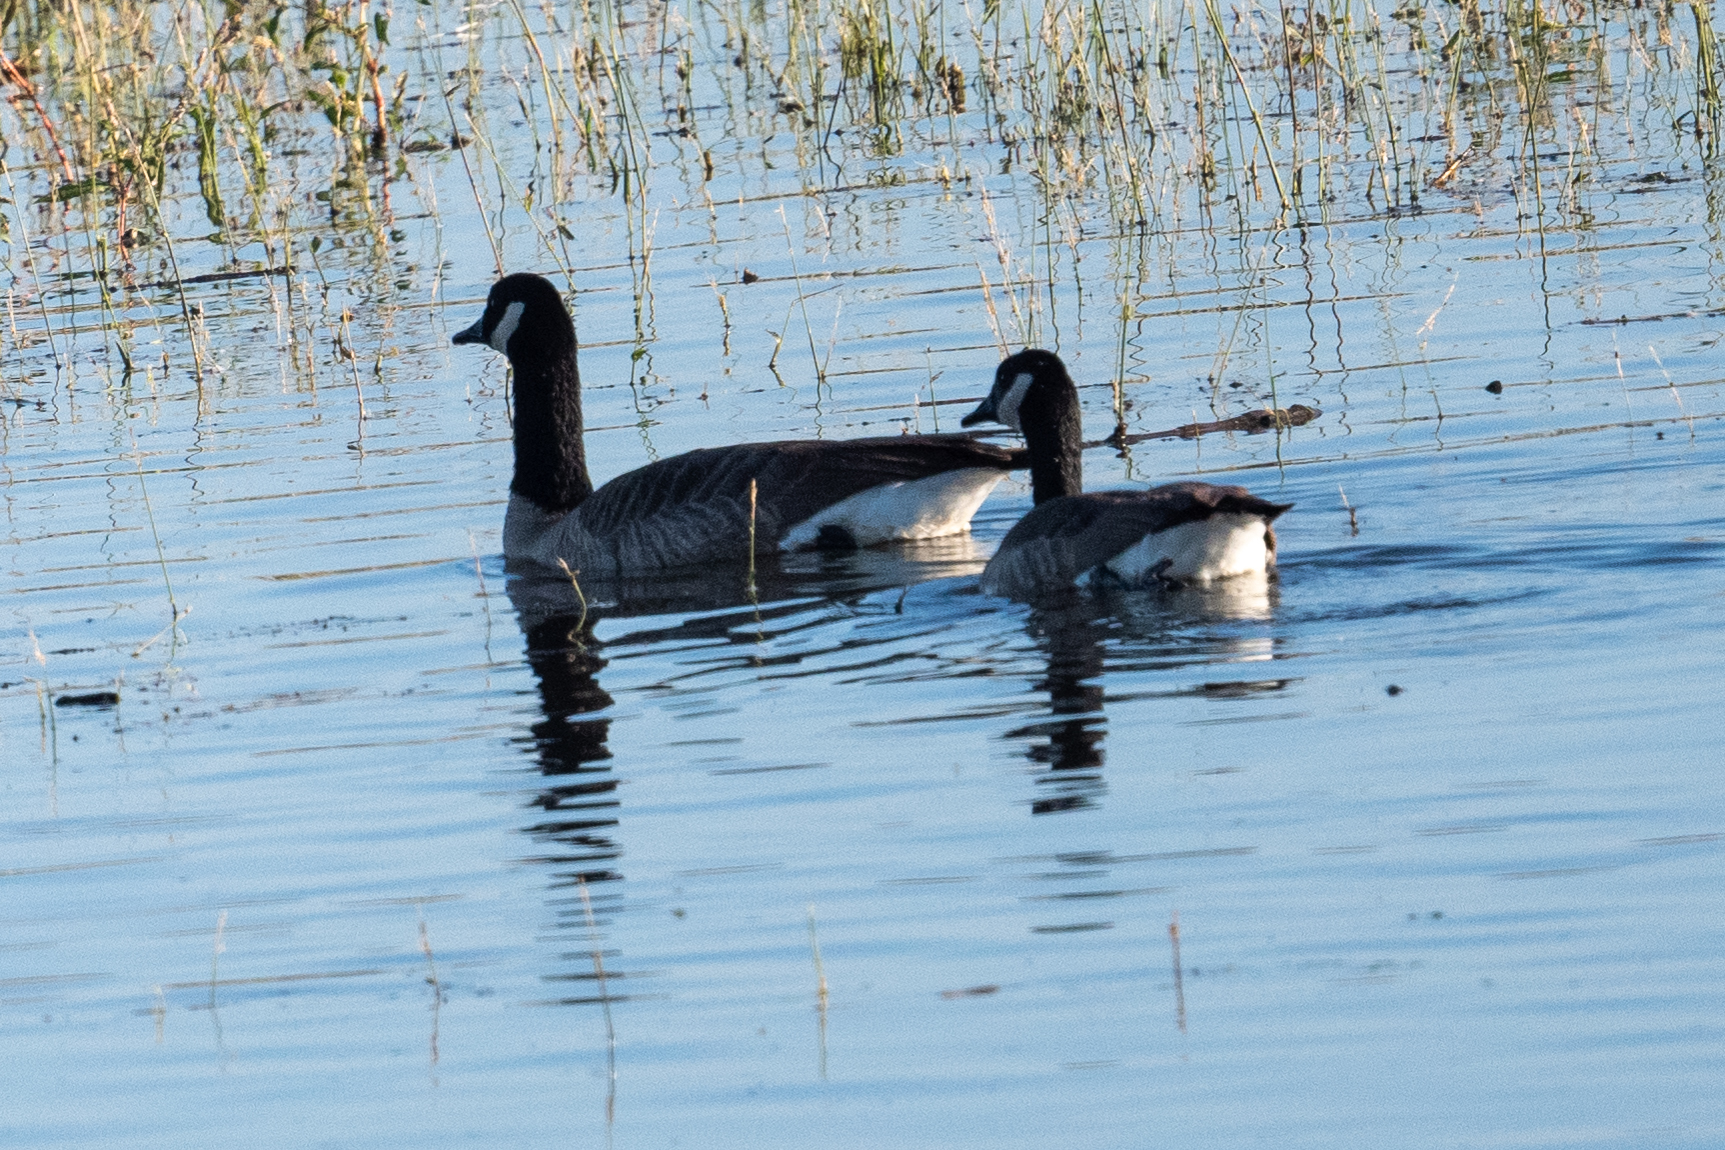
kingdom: Animalia
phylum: Chordata
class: Aves
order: Anseriformes
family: Anatidae
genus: Branta
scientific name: Branta canadensis
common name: Canada goose
